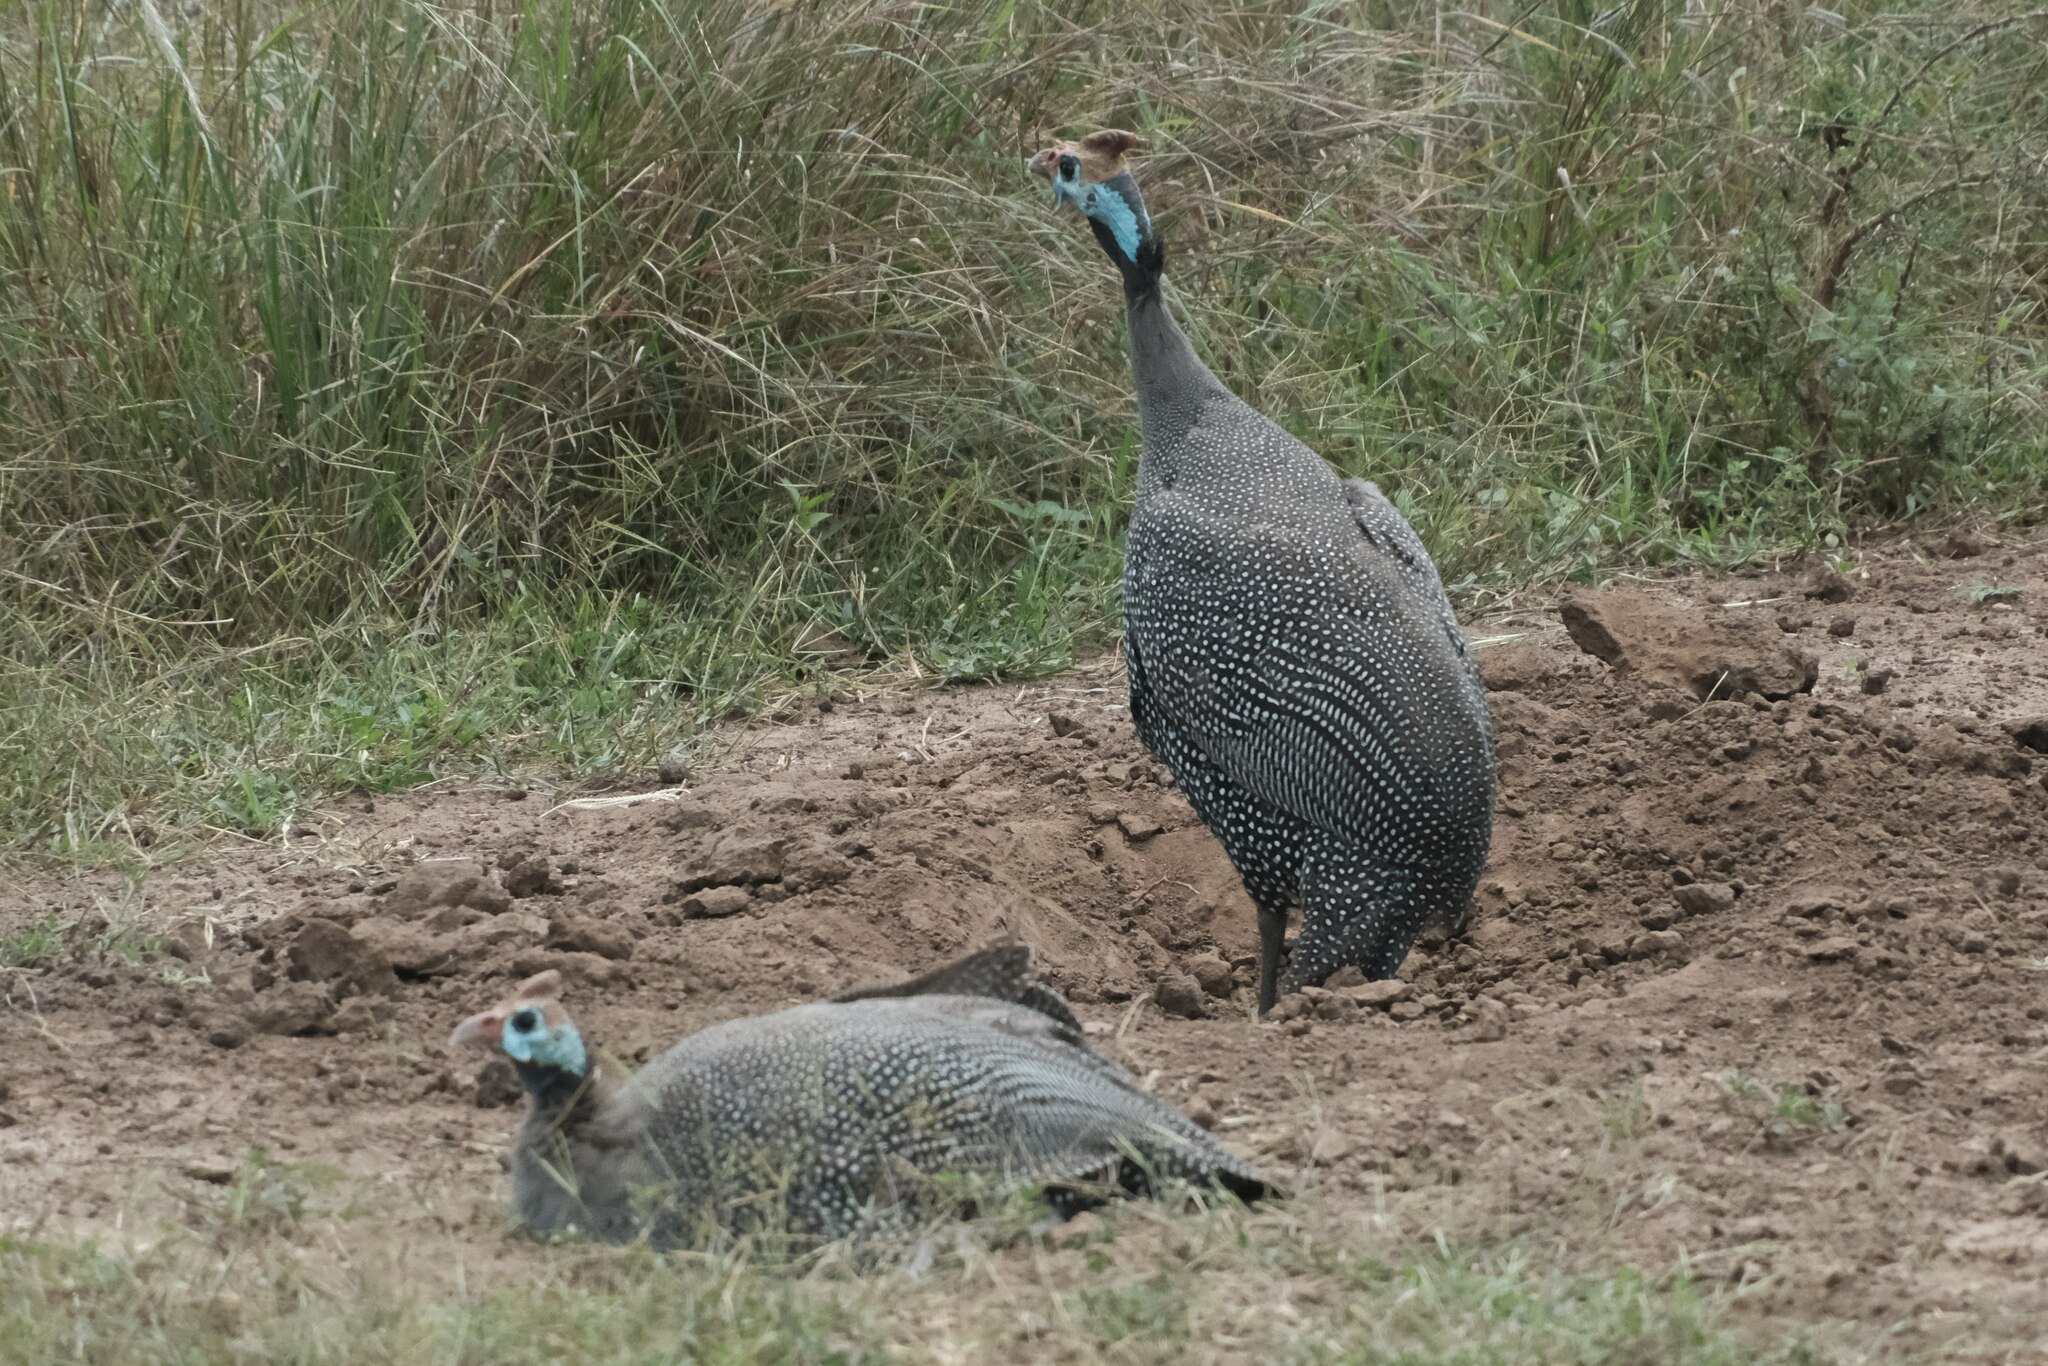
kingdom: Animalia
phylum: Chordata
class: Aves
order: Galliformes
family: Numididae
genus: Numida
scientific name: Numida meleagris
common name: Helmeted guineafowl
